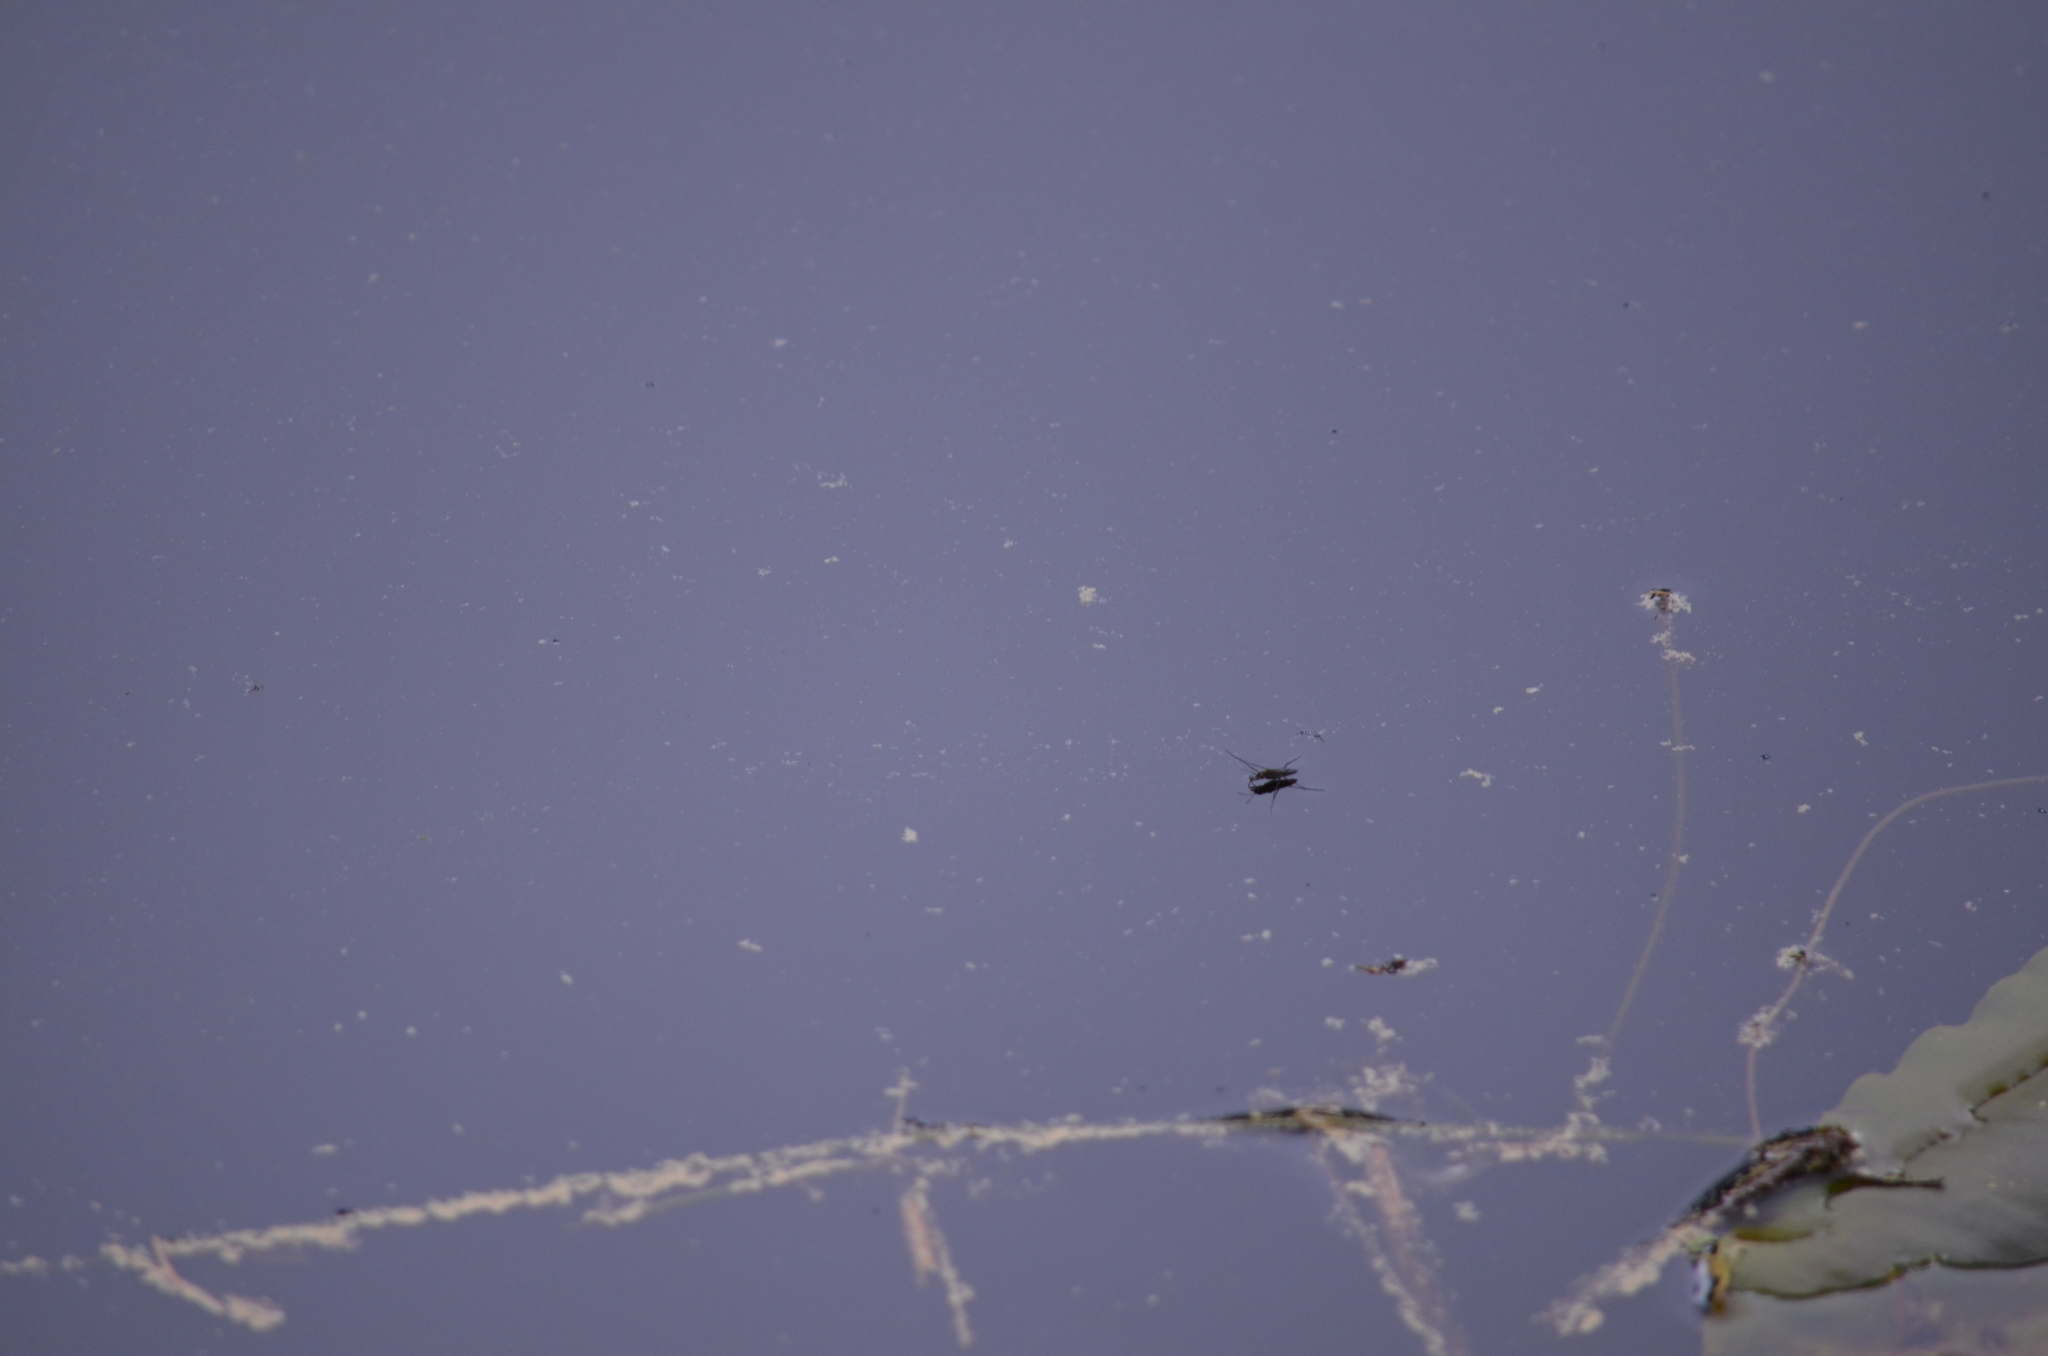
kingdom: Animalia
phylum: Arthropoda
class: Insecta
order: Hemiptera
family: Gerridae
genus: Gerris
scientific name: Gerris
